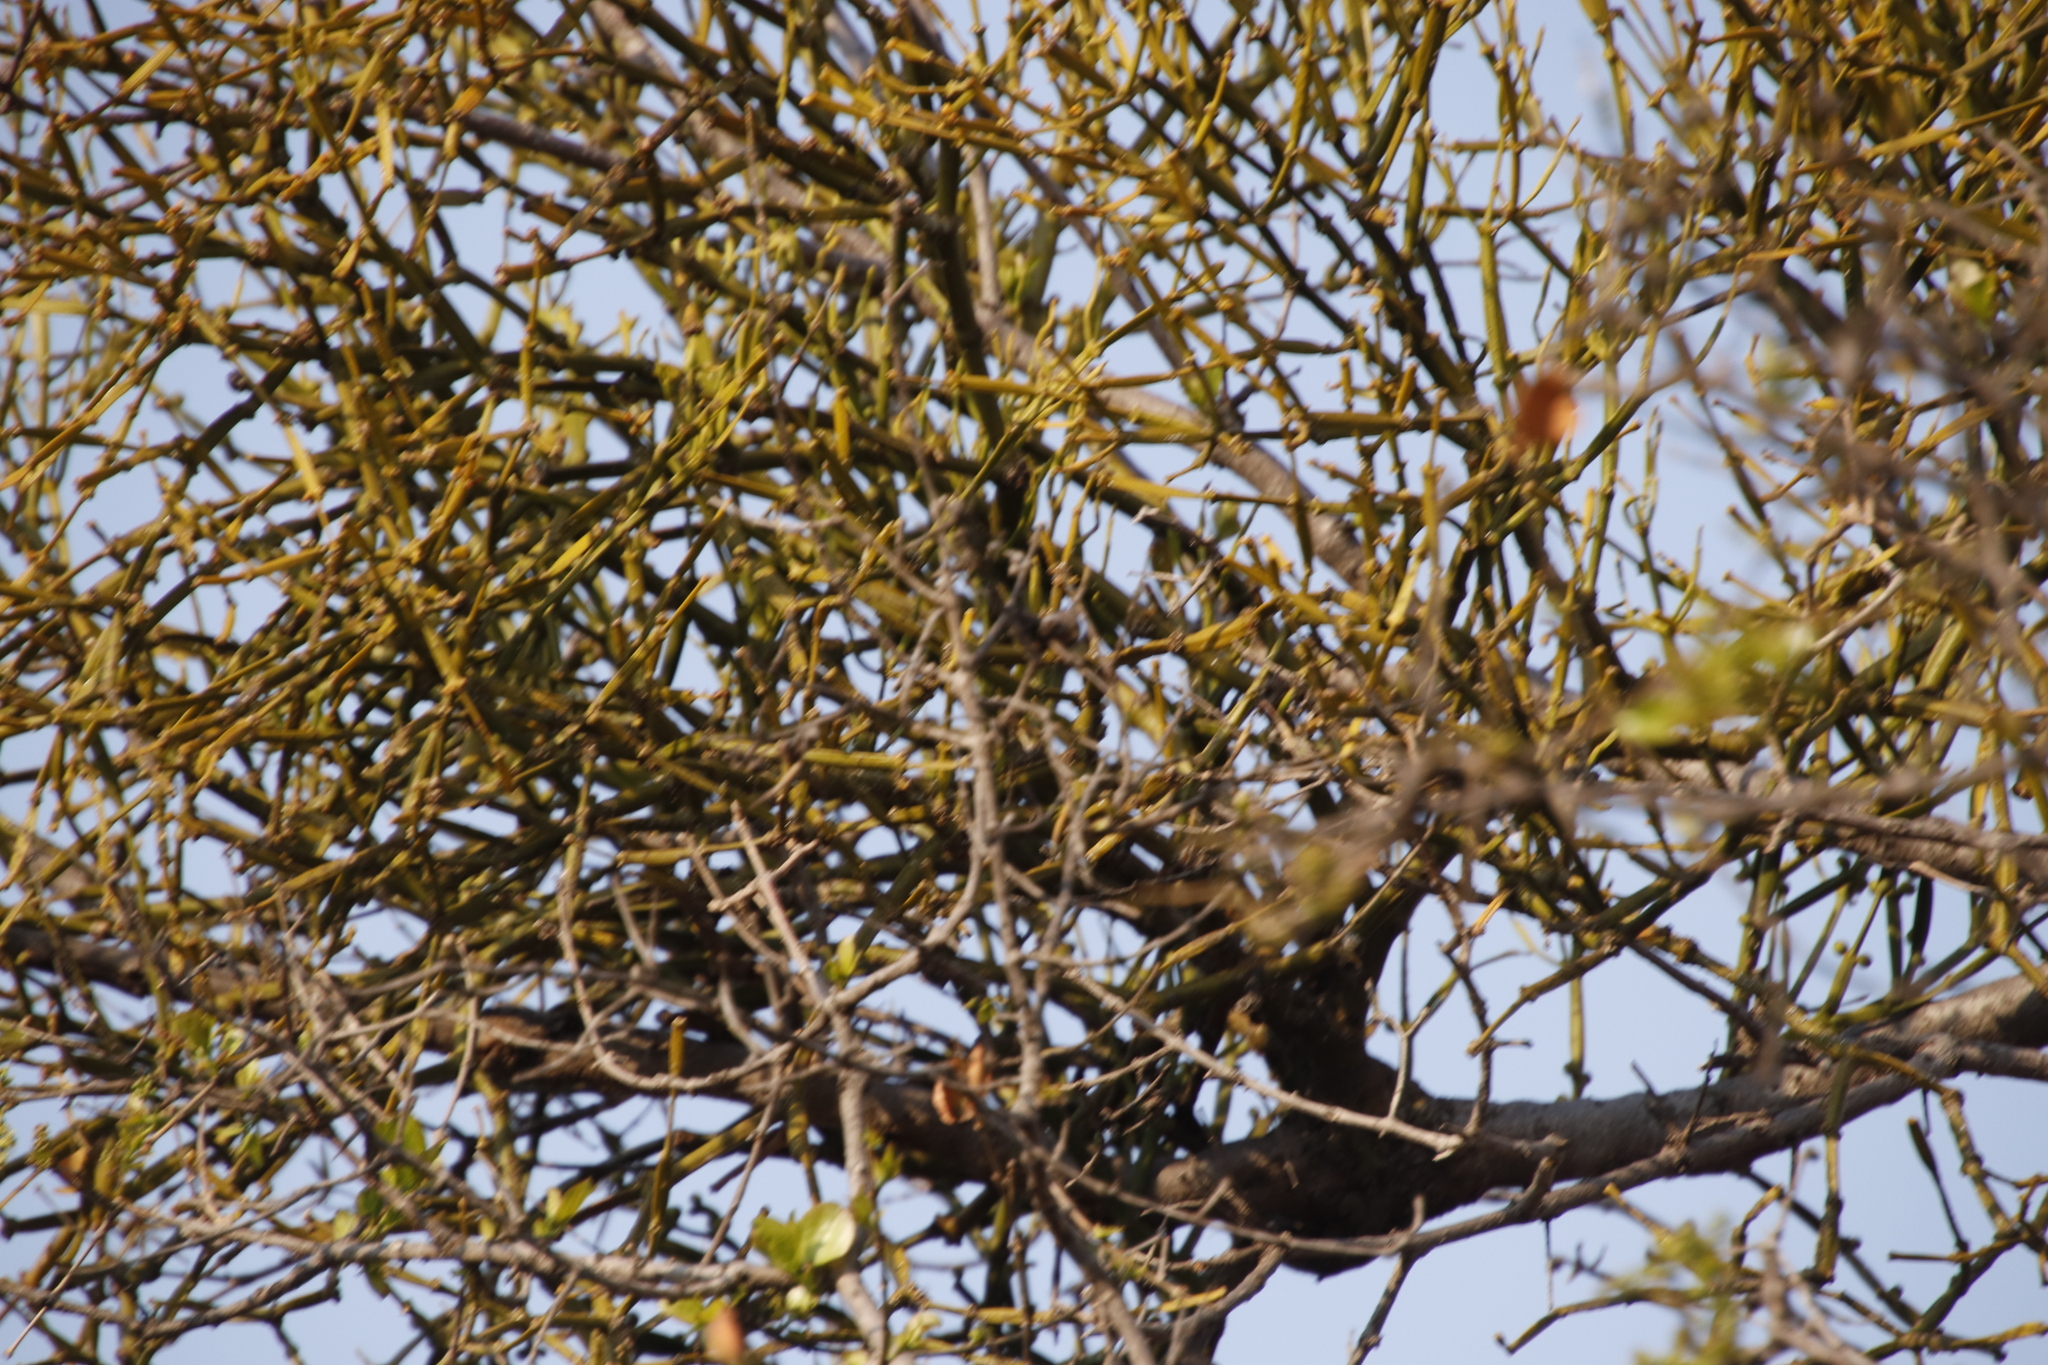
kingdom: Plantae
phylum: Tracheophyta
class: Magnoliopsida
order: Santalales
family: Viscaceae
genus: Viscum
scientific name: Viscum combreticola
